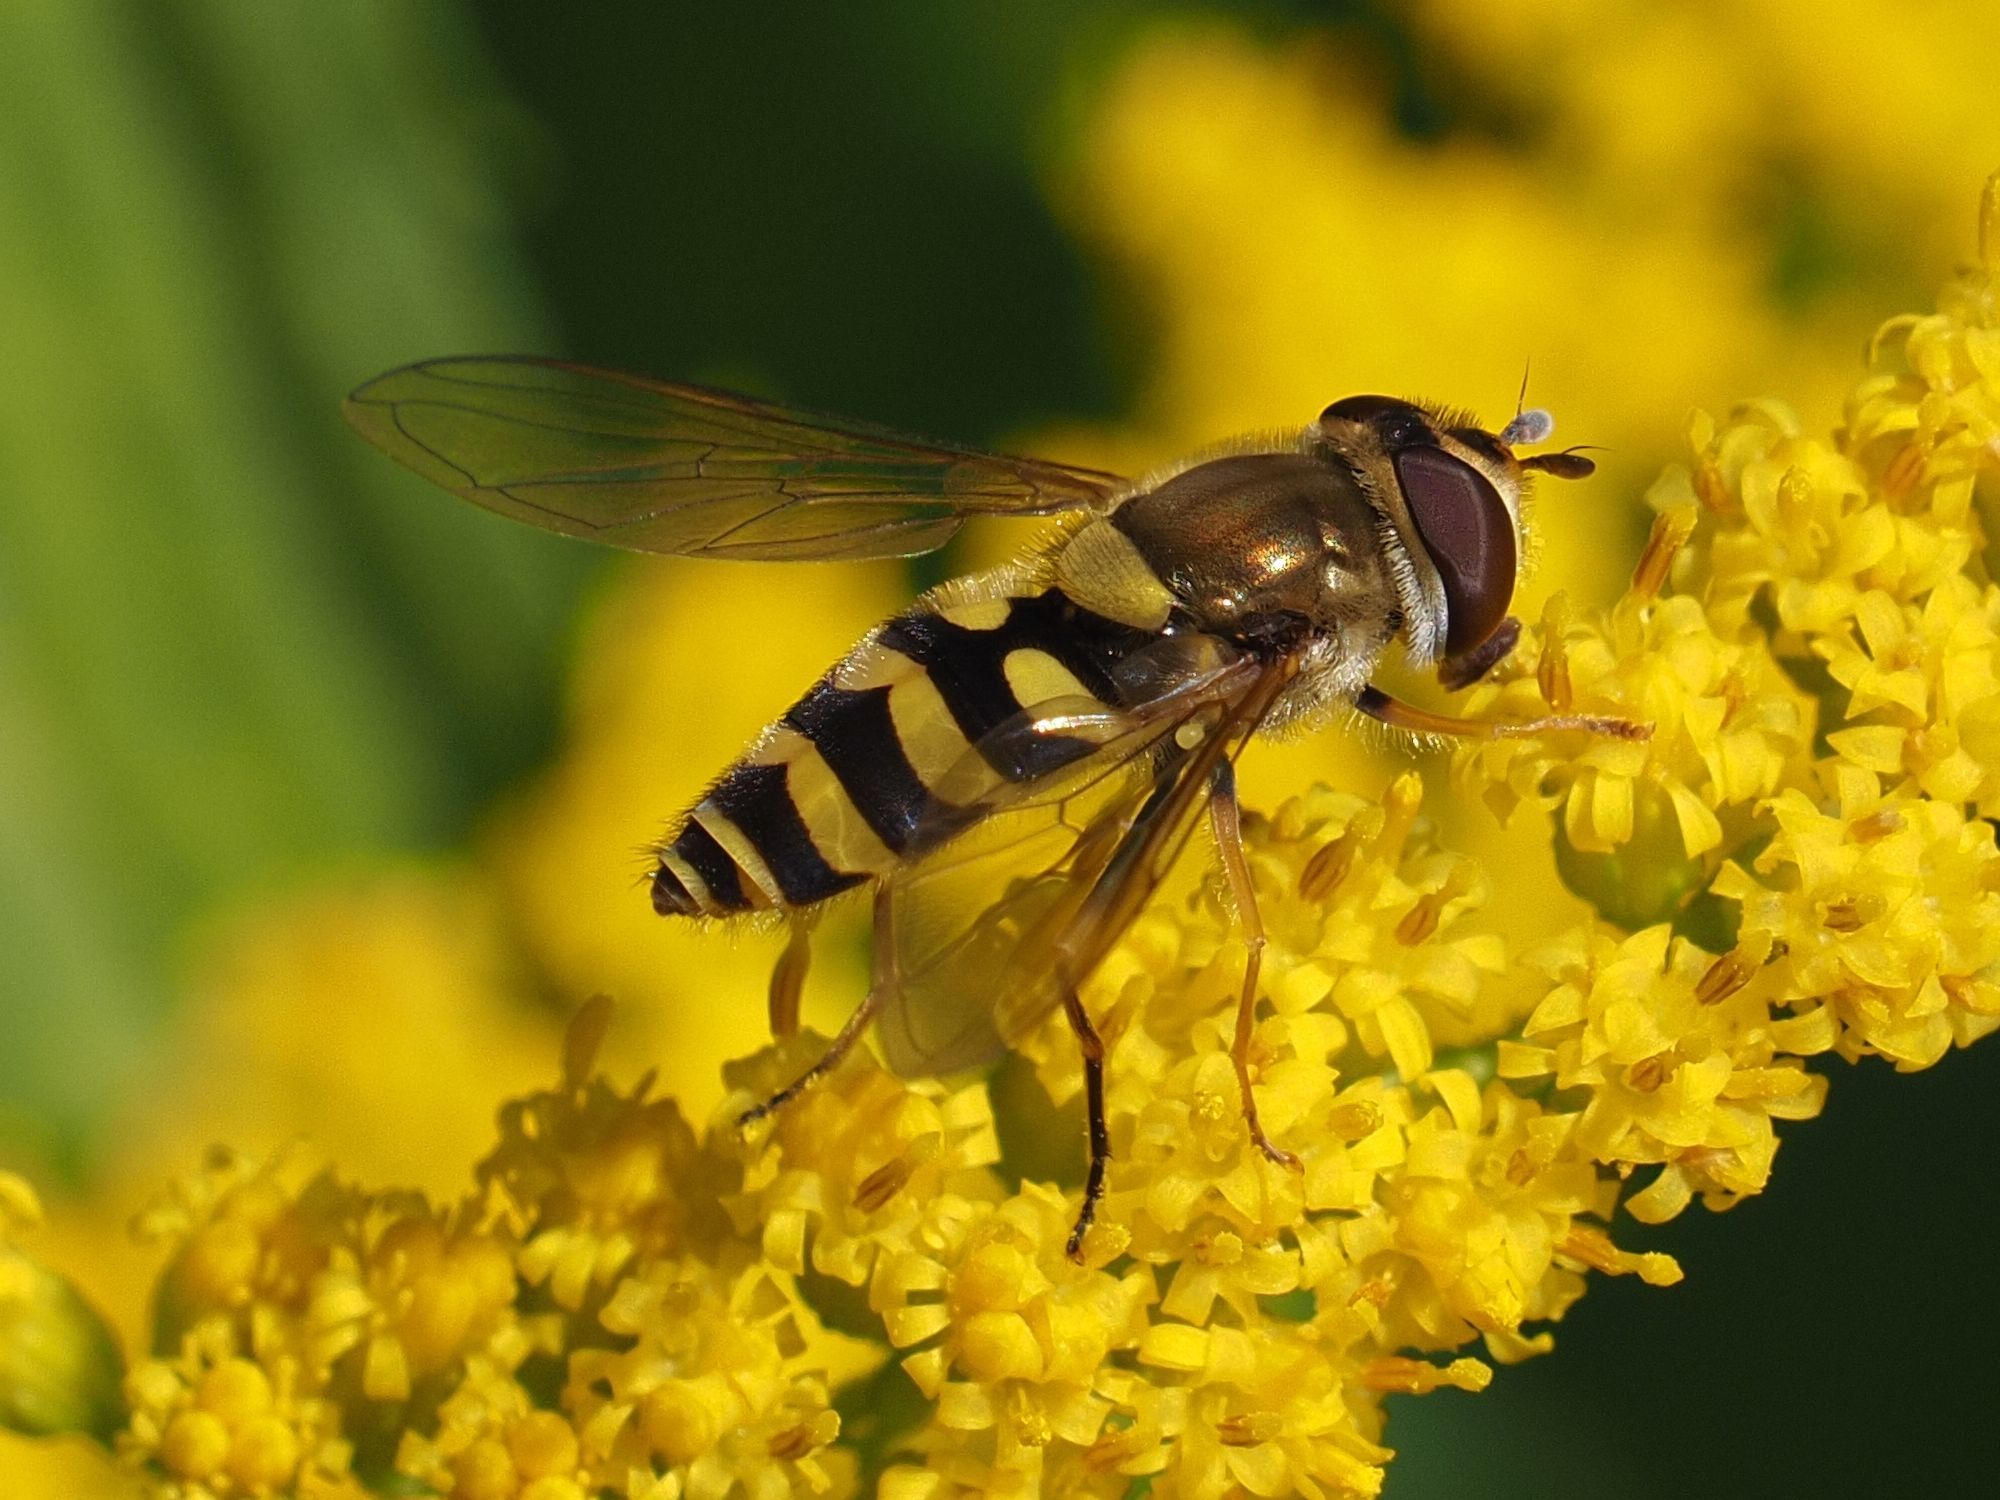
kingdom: Animalia
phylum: Arthropoda
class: Insecta
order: Diptera
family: Syrphidae
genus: Syrphus
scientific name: Syrphus vitripennis
